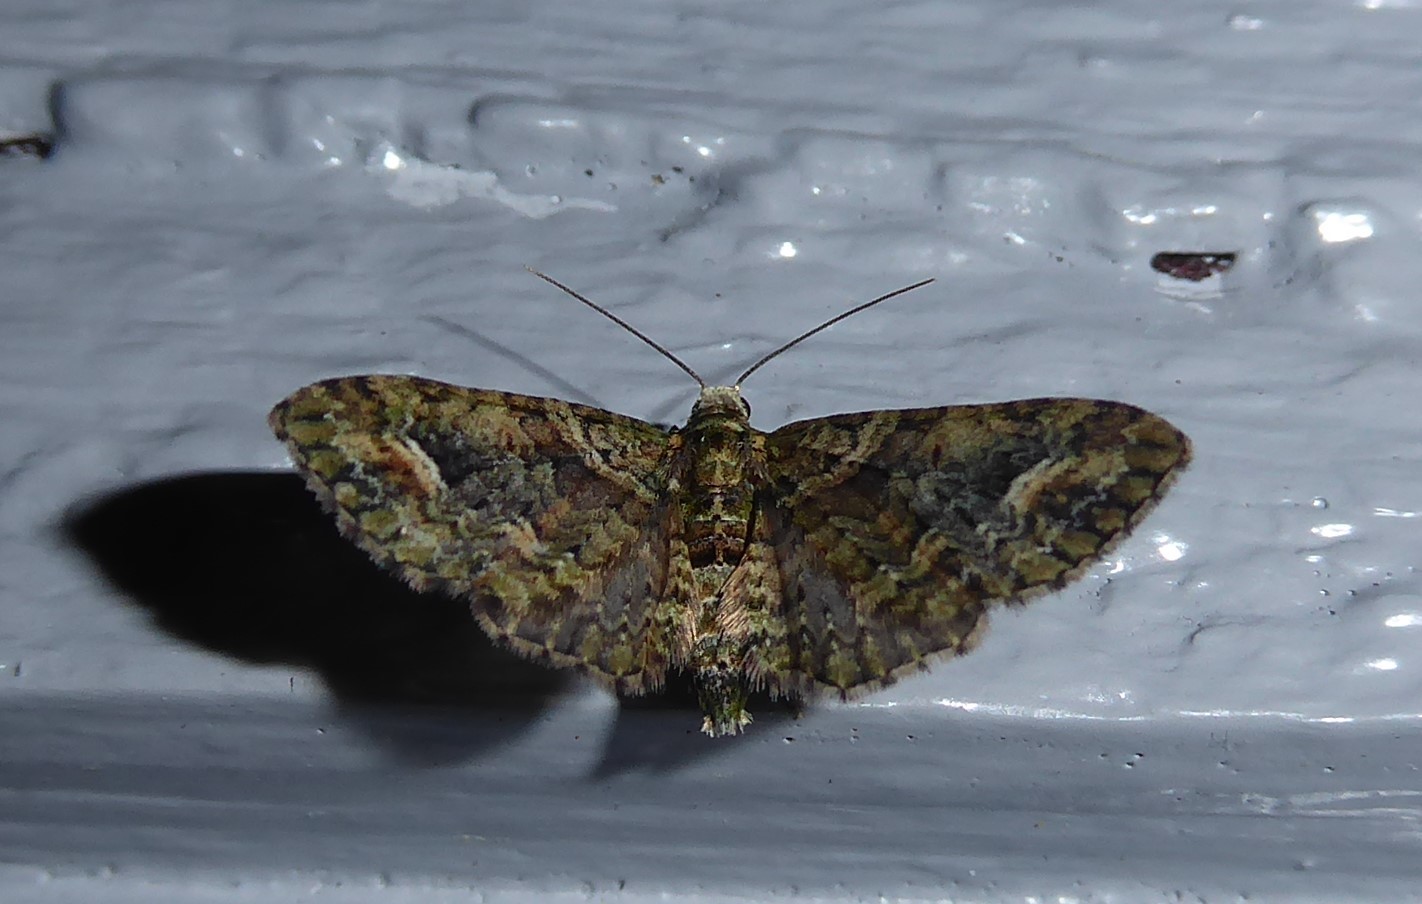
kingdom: Animalia
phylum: Arthropoda
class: Insecta
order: Lepidoptera
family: Geometridae
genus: Idaea
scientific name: Idaea mutanda
